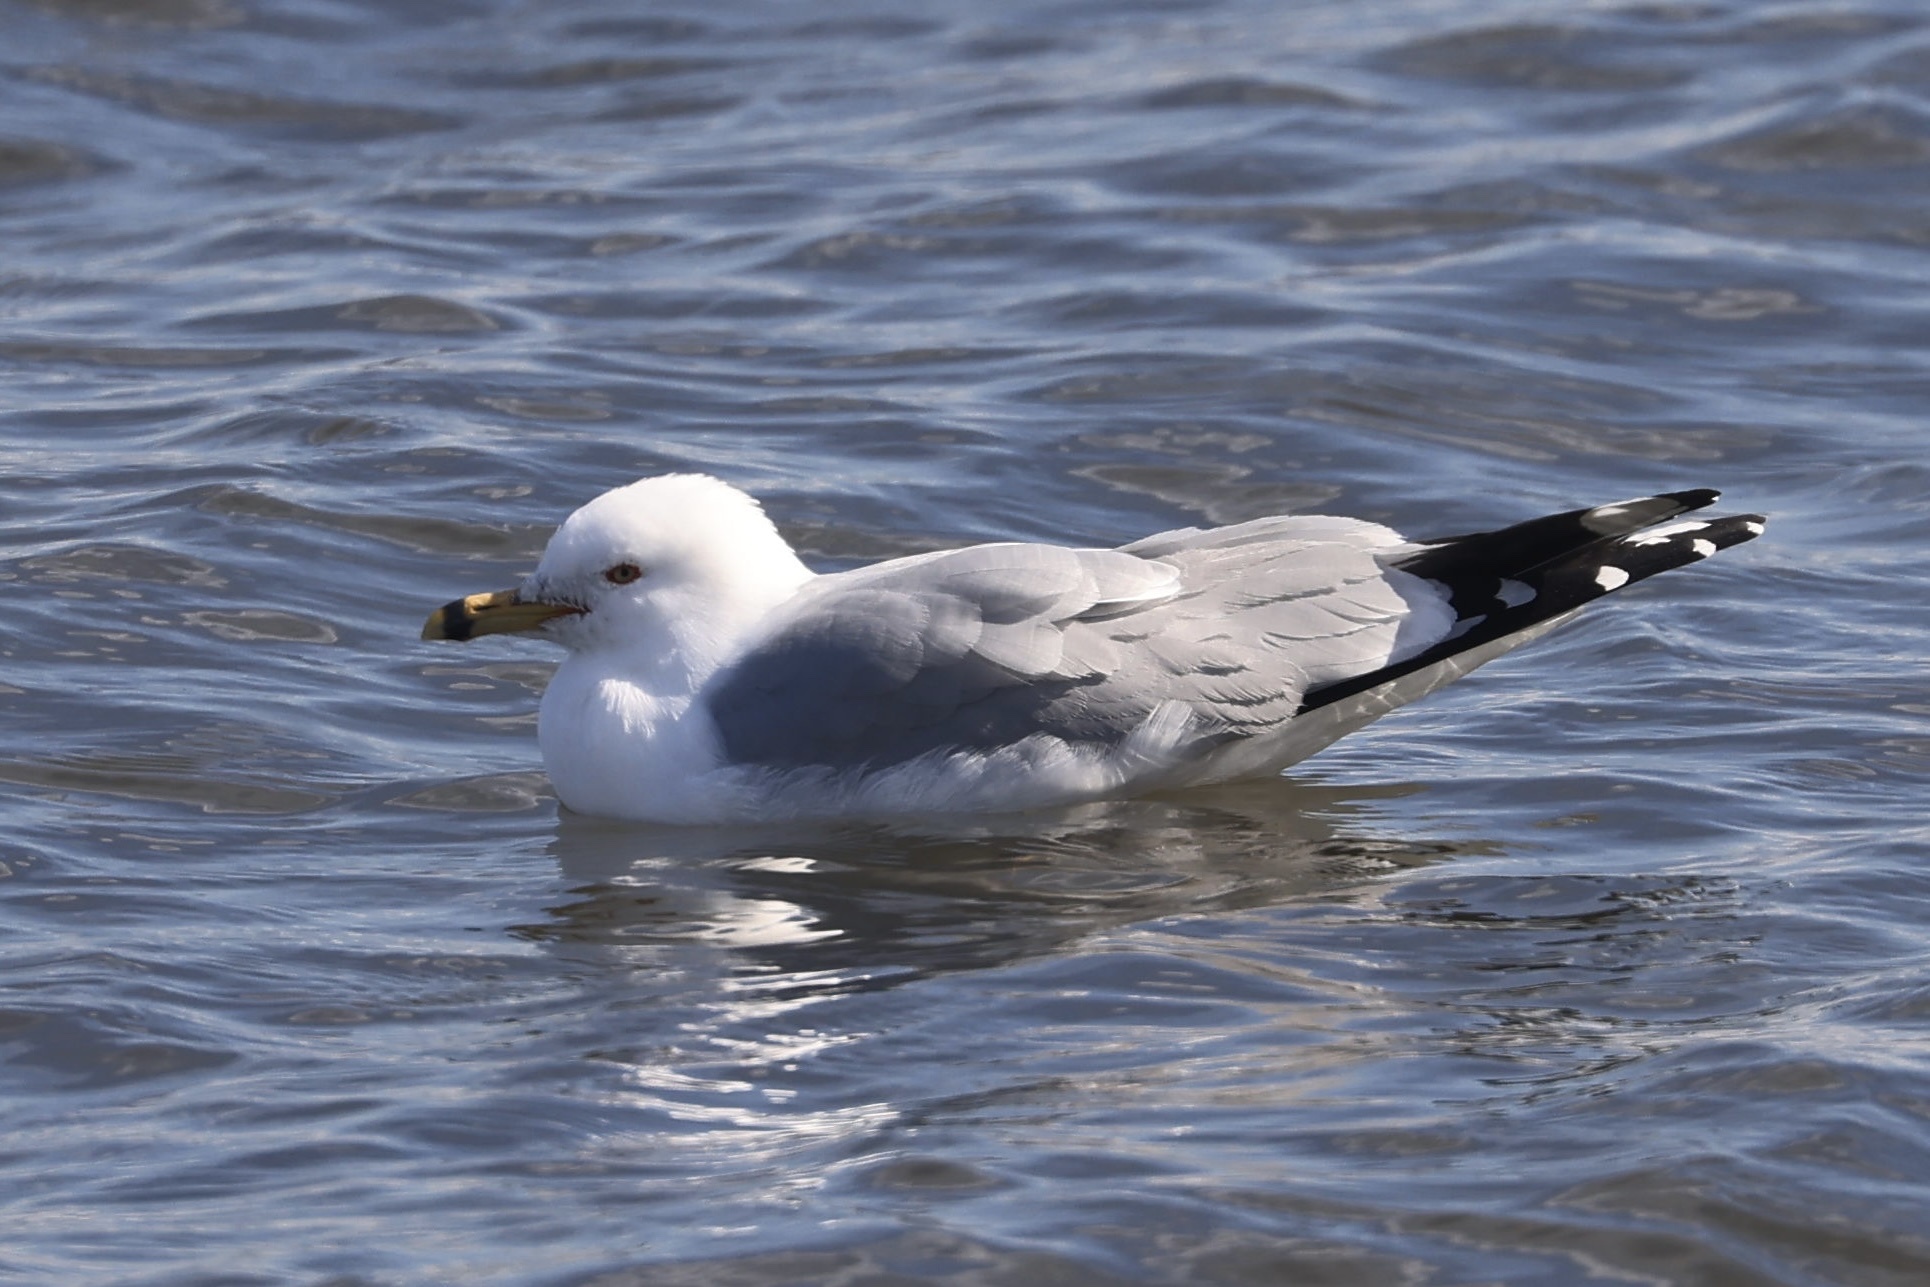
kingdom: Animalia
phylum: Chordata
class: Aves
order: Charadriiformes
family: Laridae
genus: Larus
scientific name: Larus delawarensis
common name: Ring-billed gull
